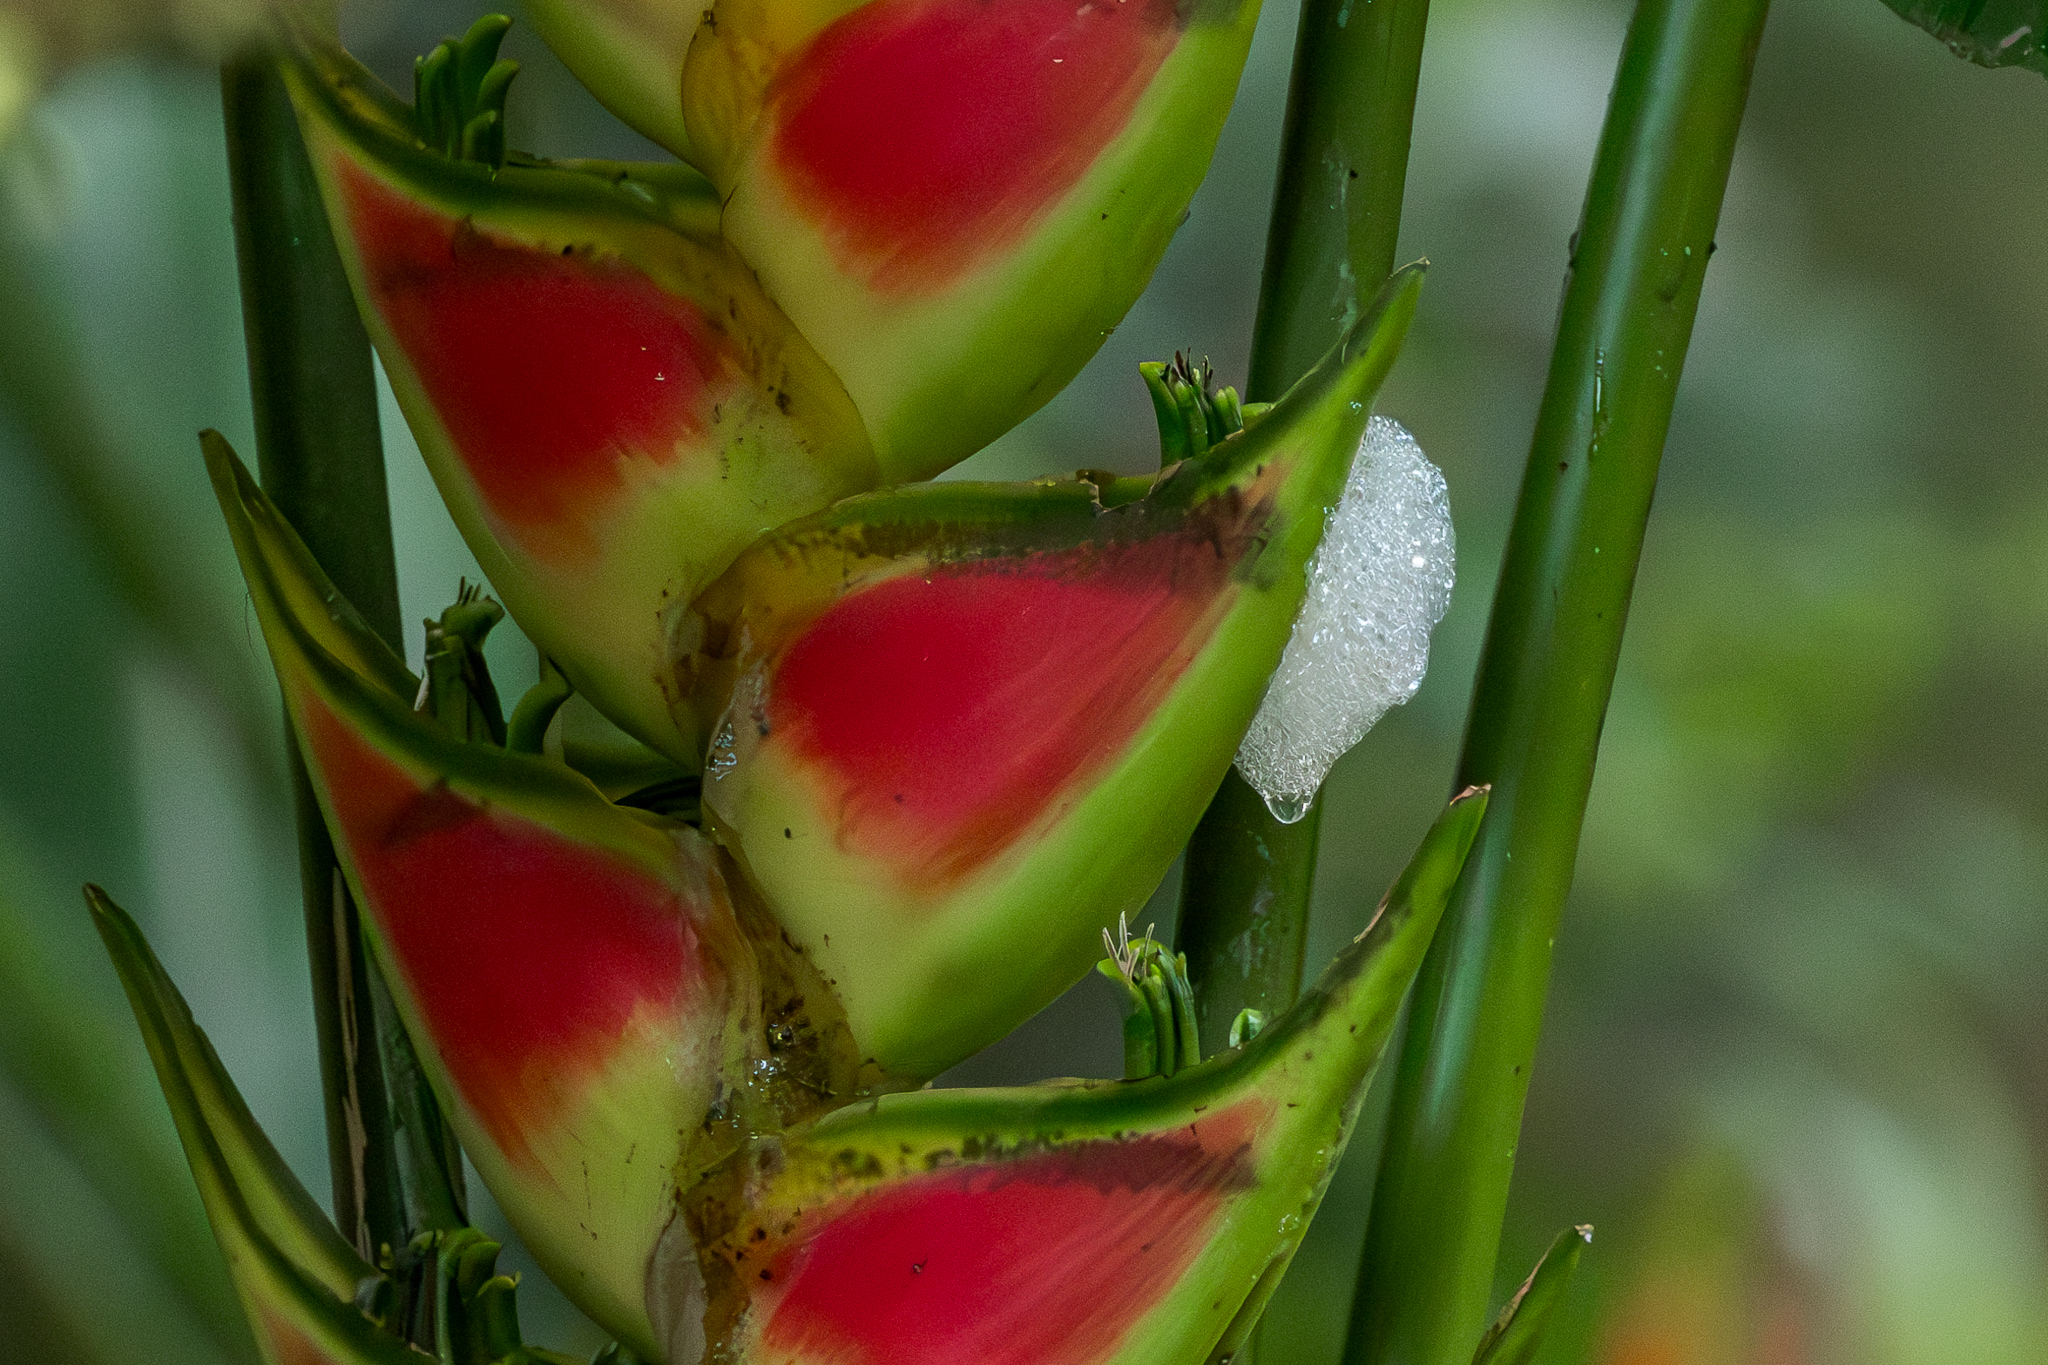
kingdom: Plantae
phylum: Tracheophyta
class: Liliopsida
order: Zingiberales
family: Heliconiaceae
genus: Heliconia
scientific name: Heliconia wagneriana
